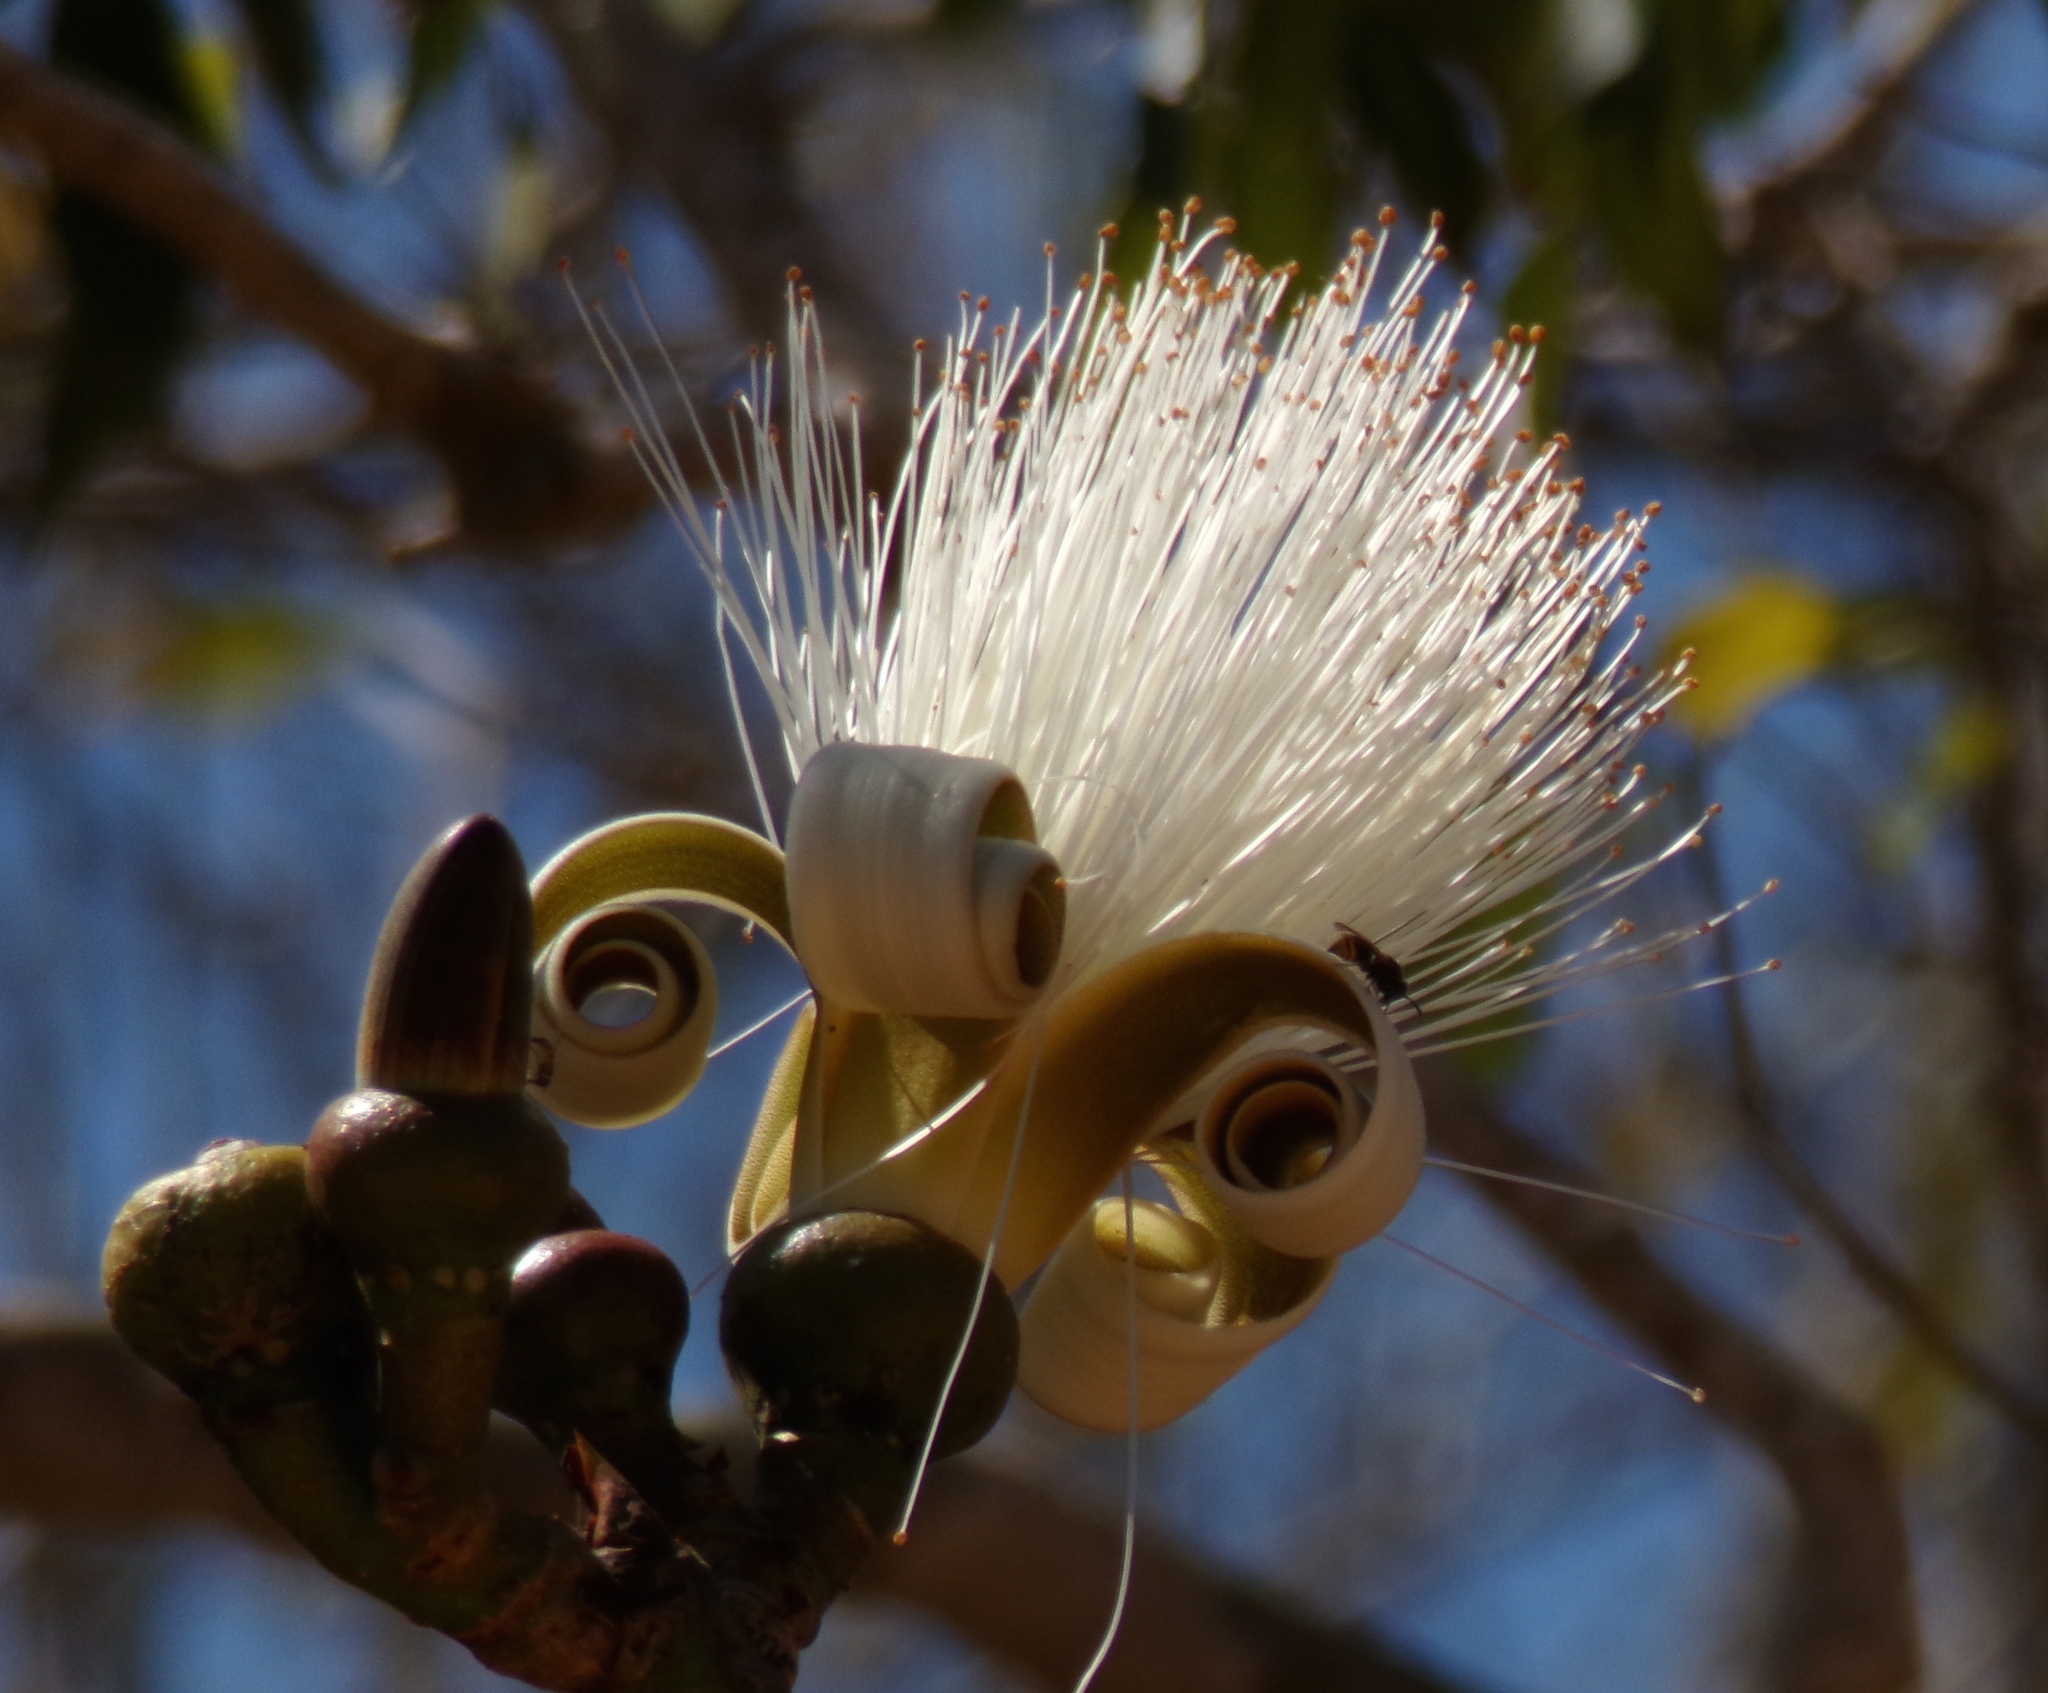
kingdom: Plantae
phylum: Tracheophyta
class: Magnoliopsida
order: Malvales
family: Malvaceae
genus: Pseudobombax
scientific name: Pseudobombax palmeri
